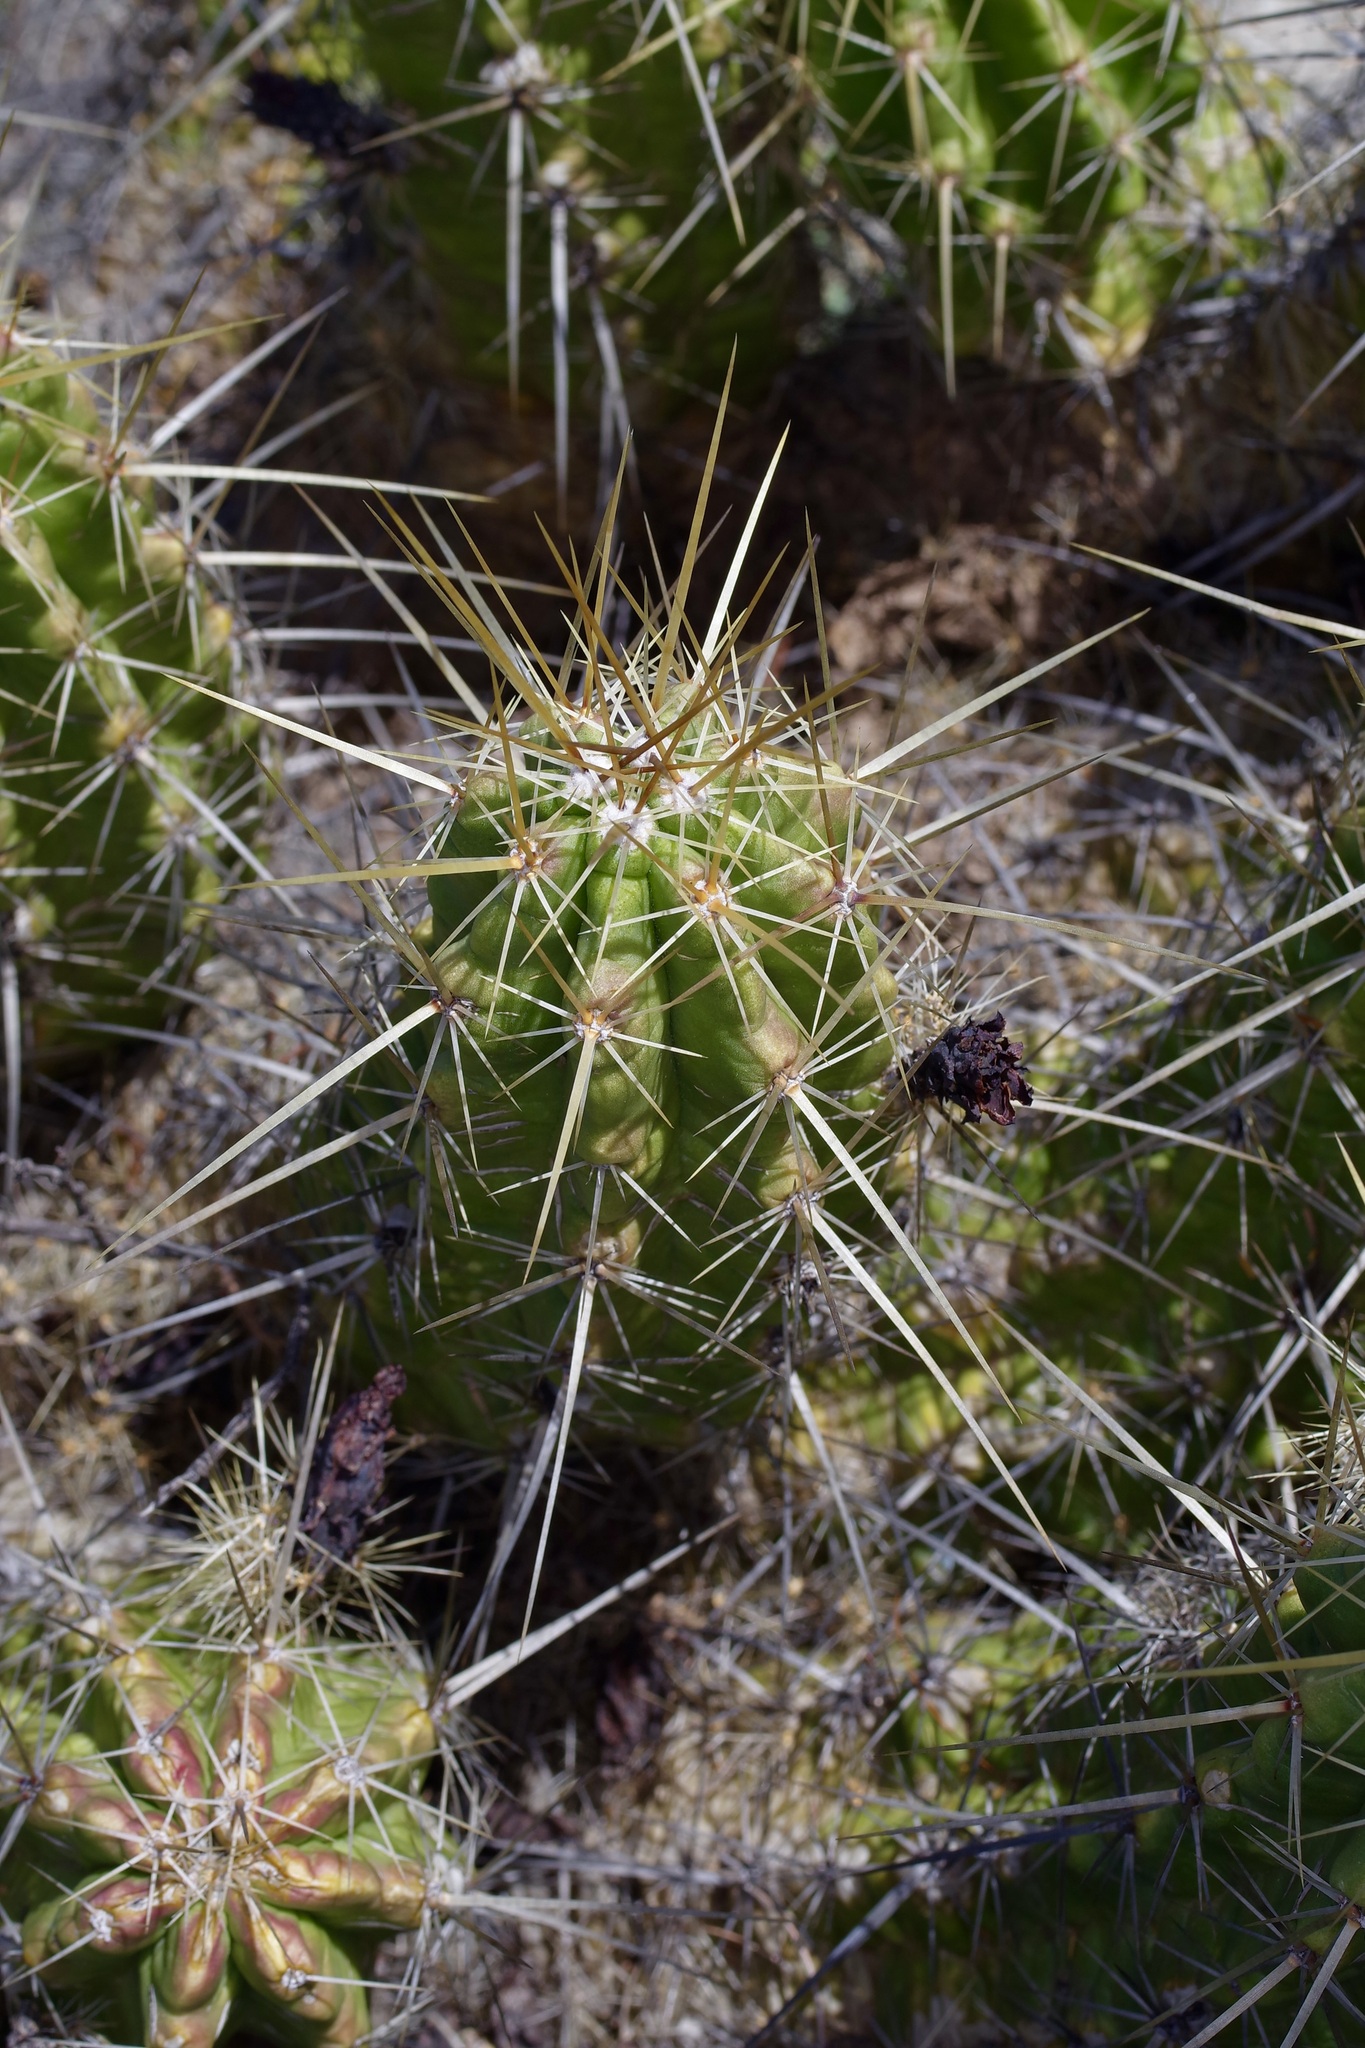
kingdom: Plantae
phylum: Tracheophyta
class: Magnoliopsida
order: Caryophyllales
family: Cactaceae
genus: Echinocereus
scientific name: Echinocereus enneacanthus
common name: Pitaya
